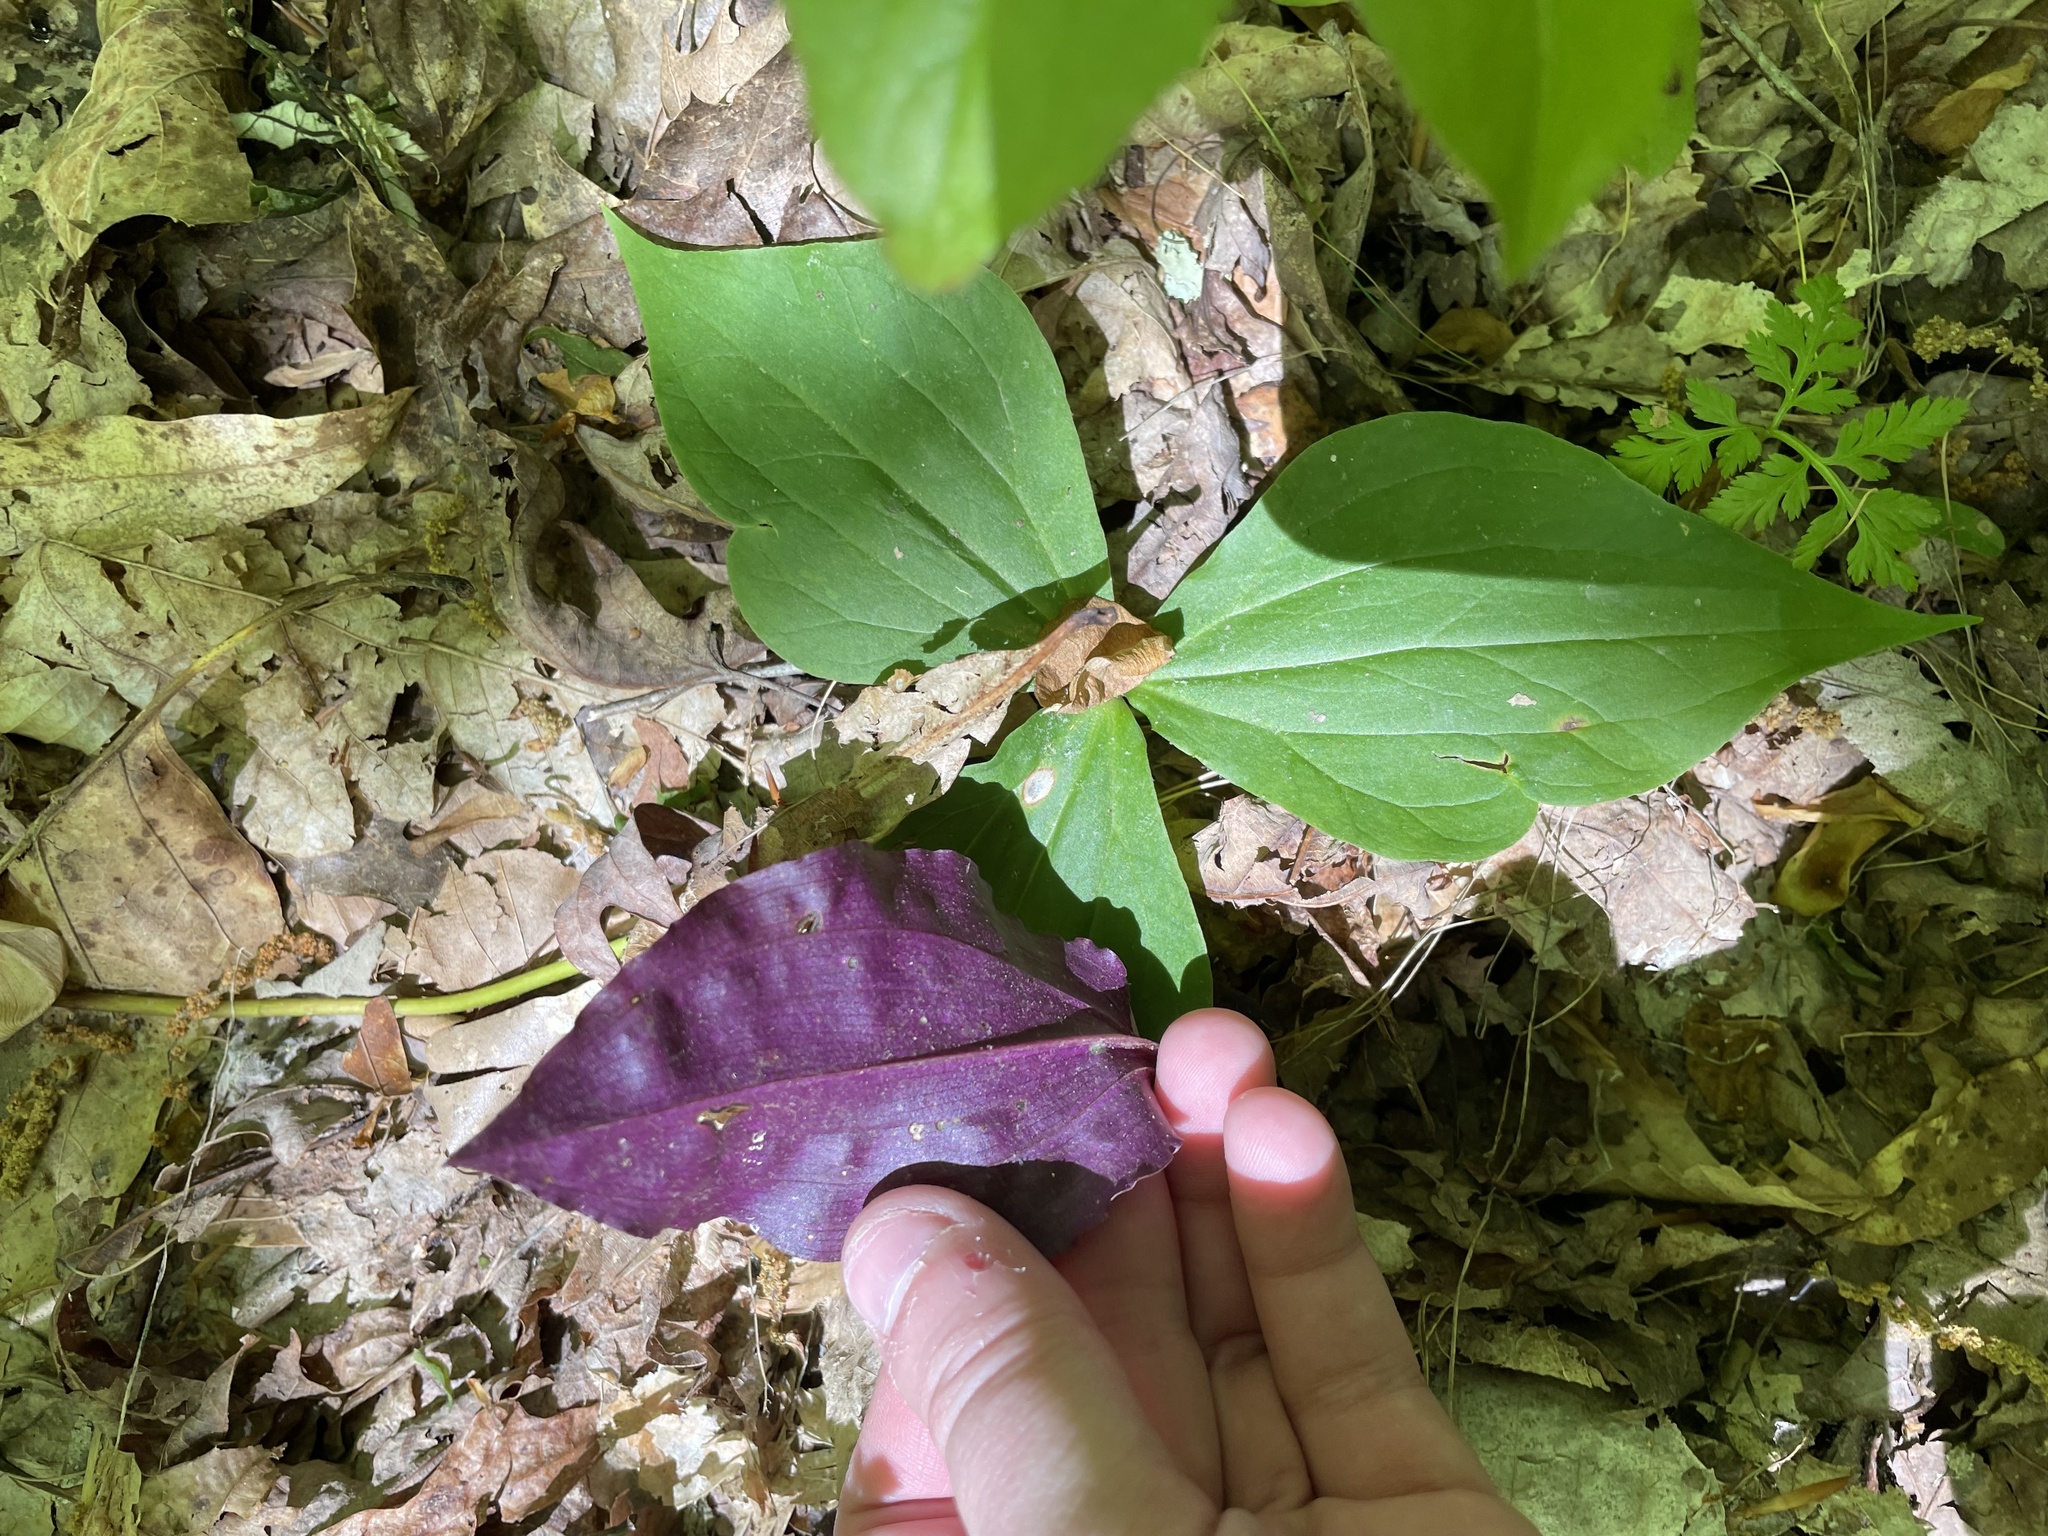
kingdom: Plantae
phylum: Tracheophyta
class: Liliopsida
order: Asparagales
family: Orchidaceae
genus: Tipularia
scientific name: Tipularia discolor
